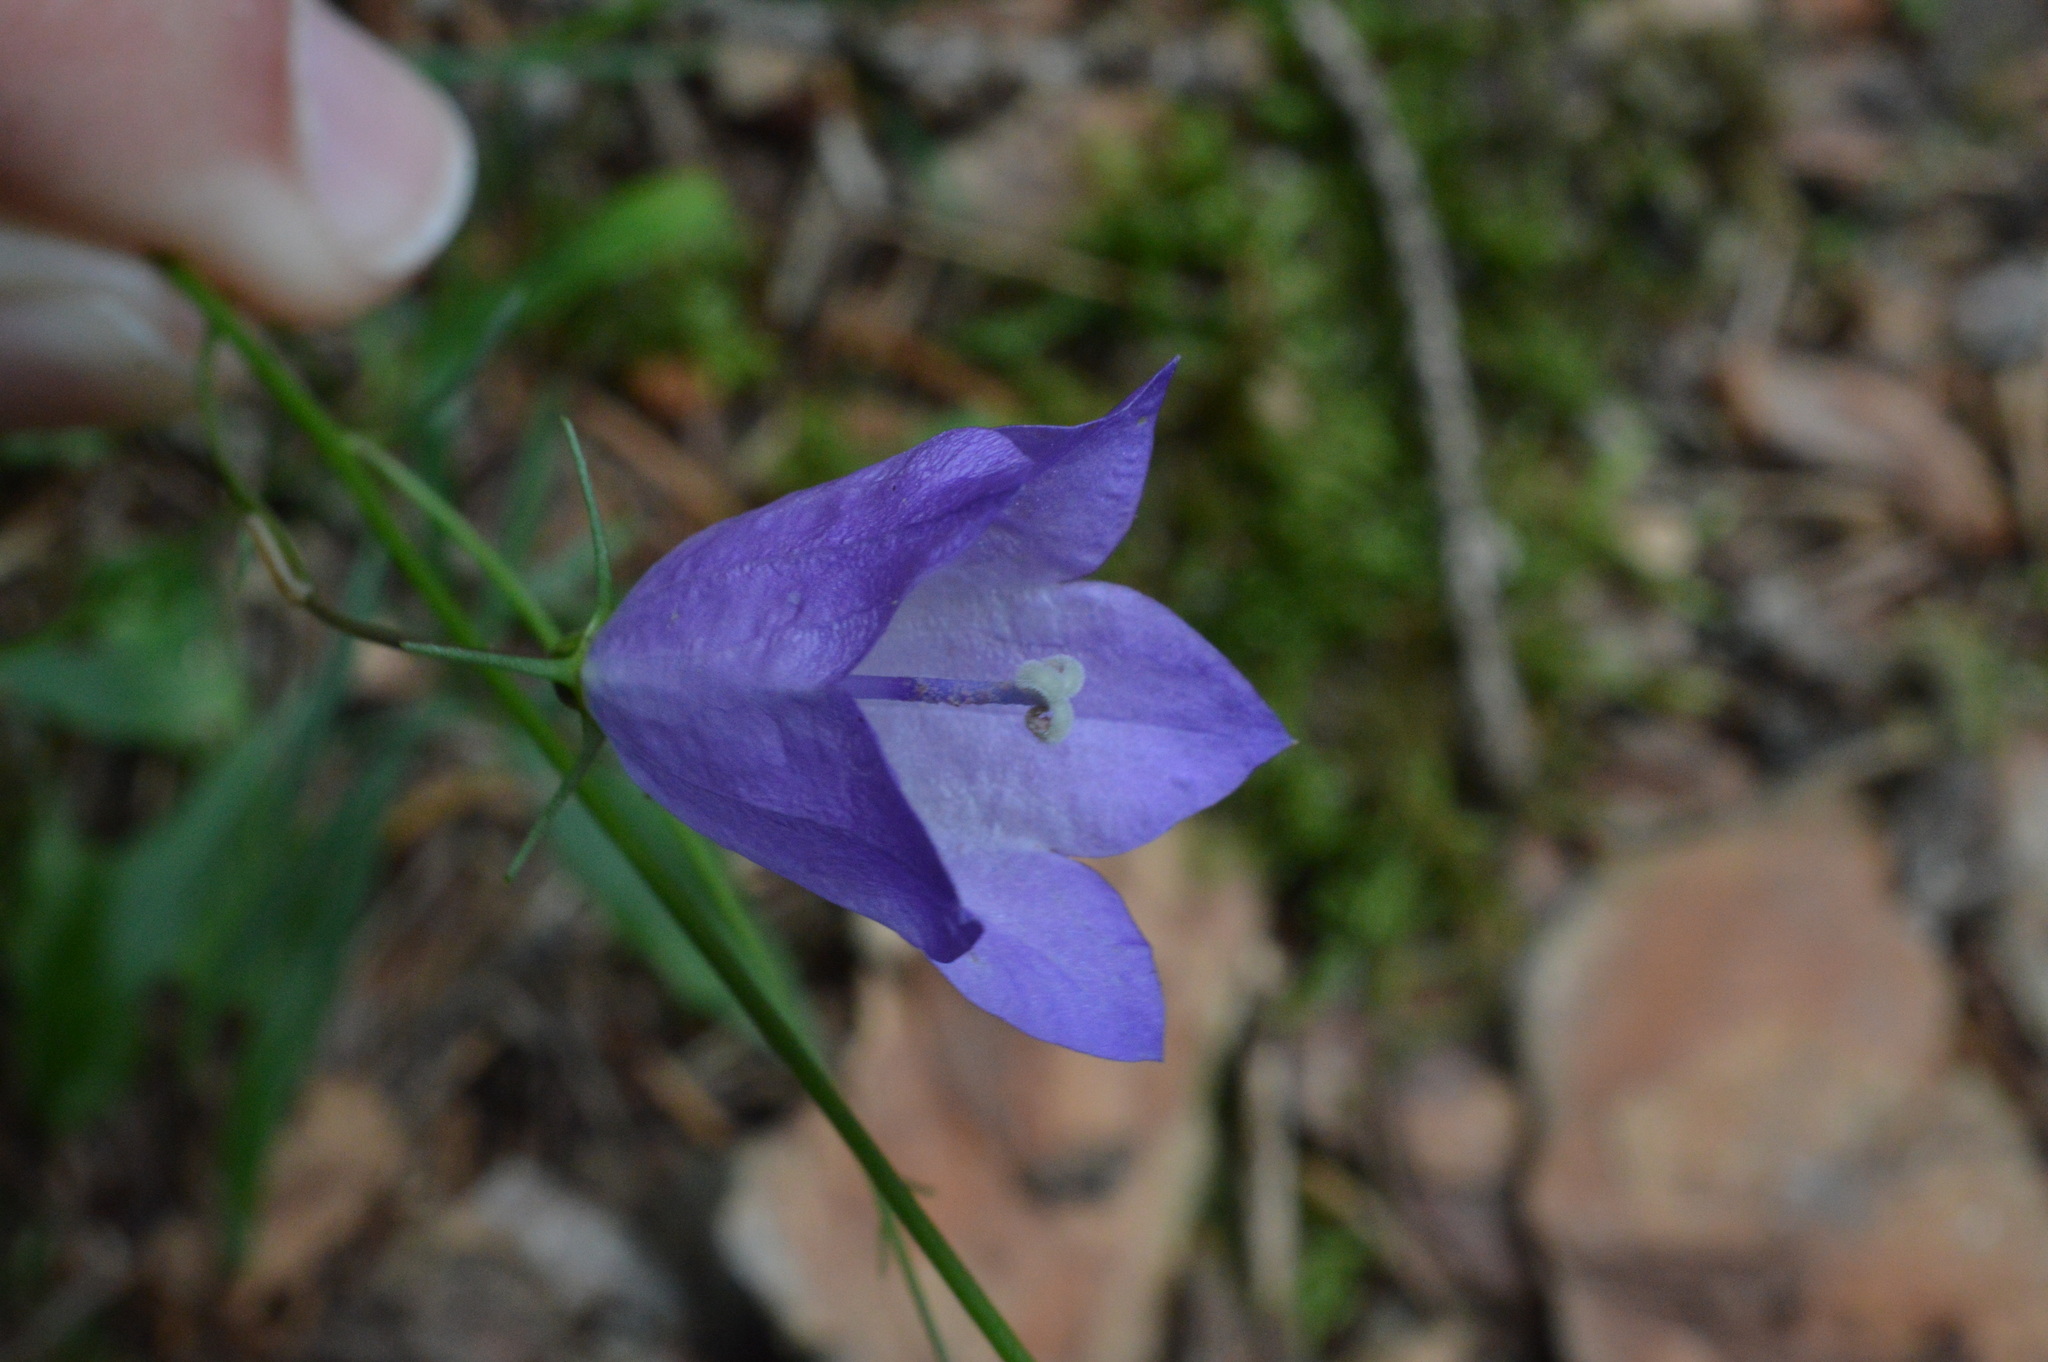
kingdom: Plantae
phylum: Tracheophyta
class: Magnoliopsida
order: Asterales
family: Campanulaceae
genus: Campanula
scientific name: Campanula scheuchzeri
